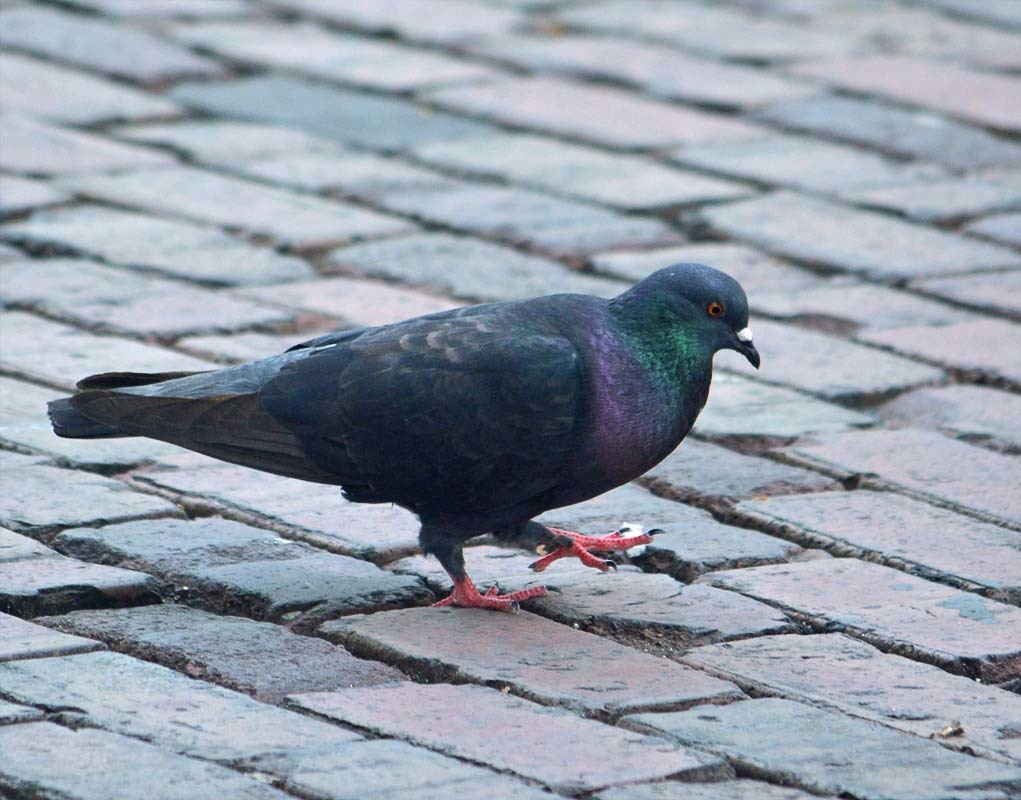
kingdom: Animalia
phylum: Chordata
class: Aves
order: Columbiformes
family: Columbidae
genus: Columba
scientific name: Columba livia
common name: Rock pigeon
